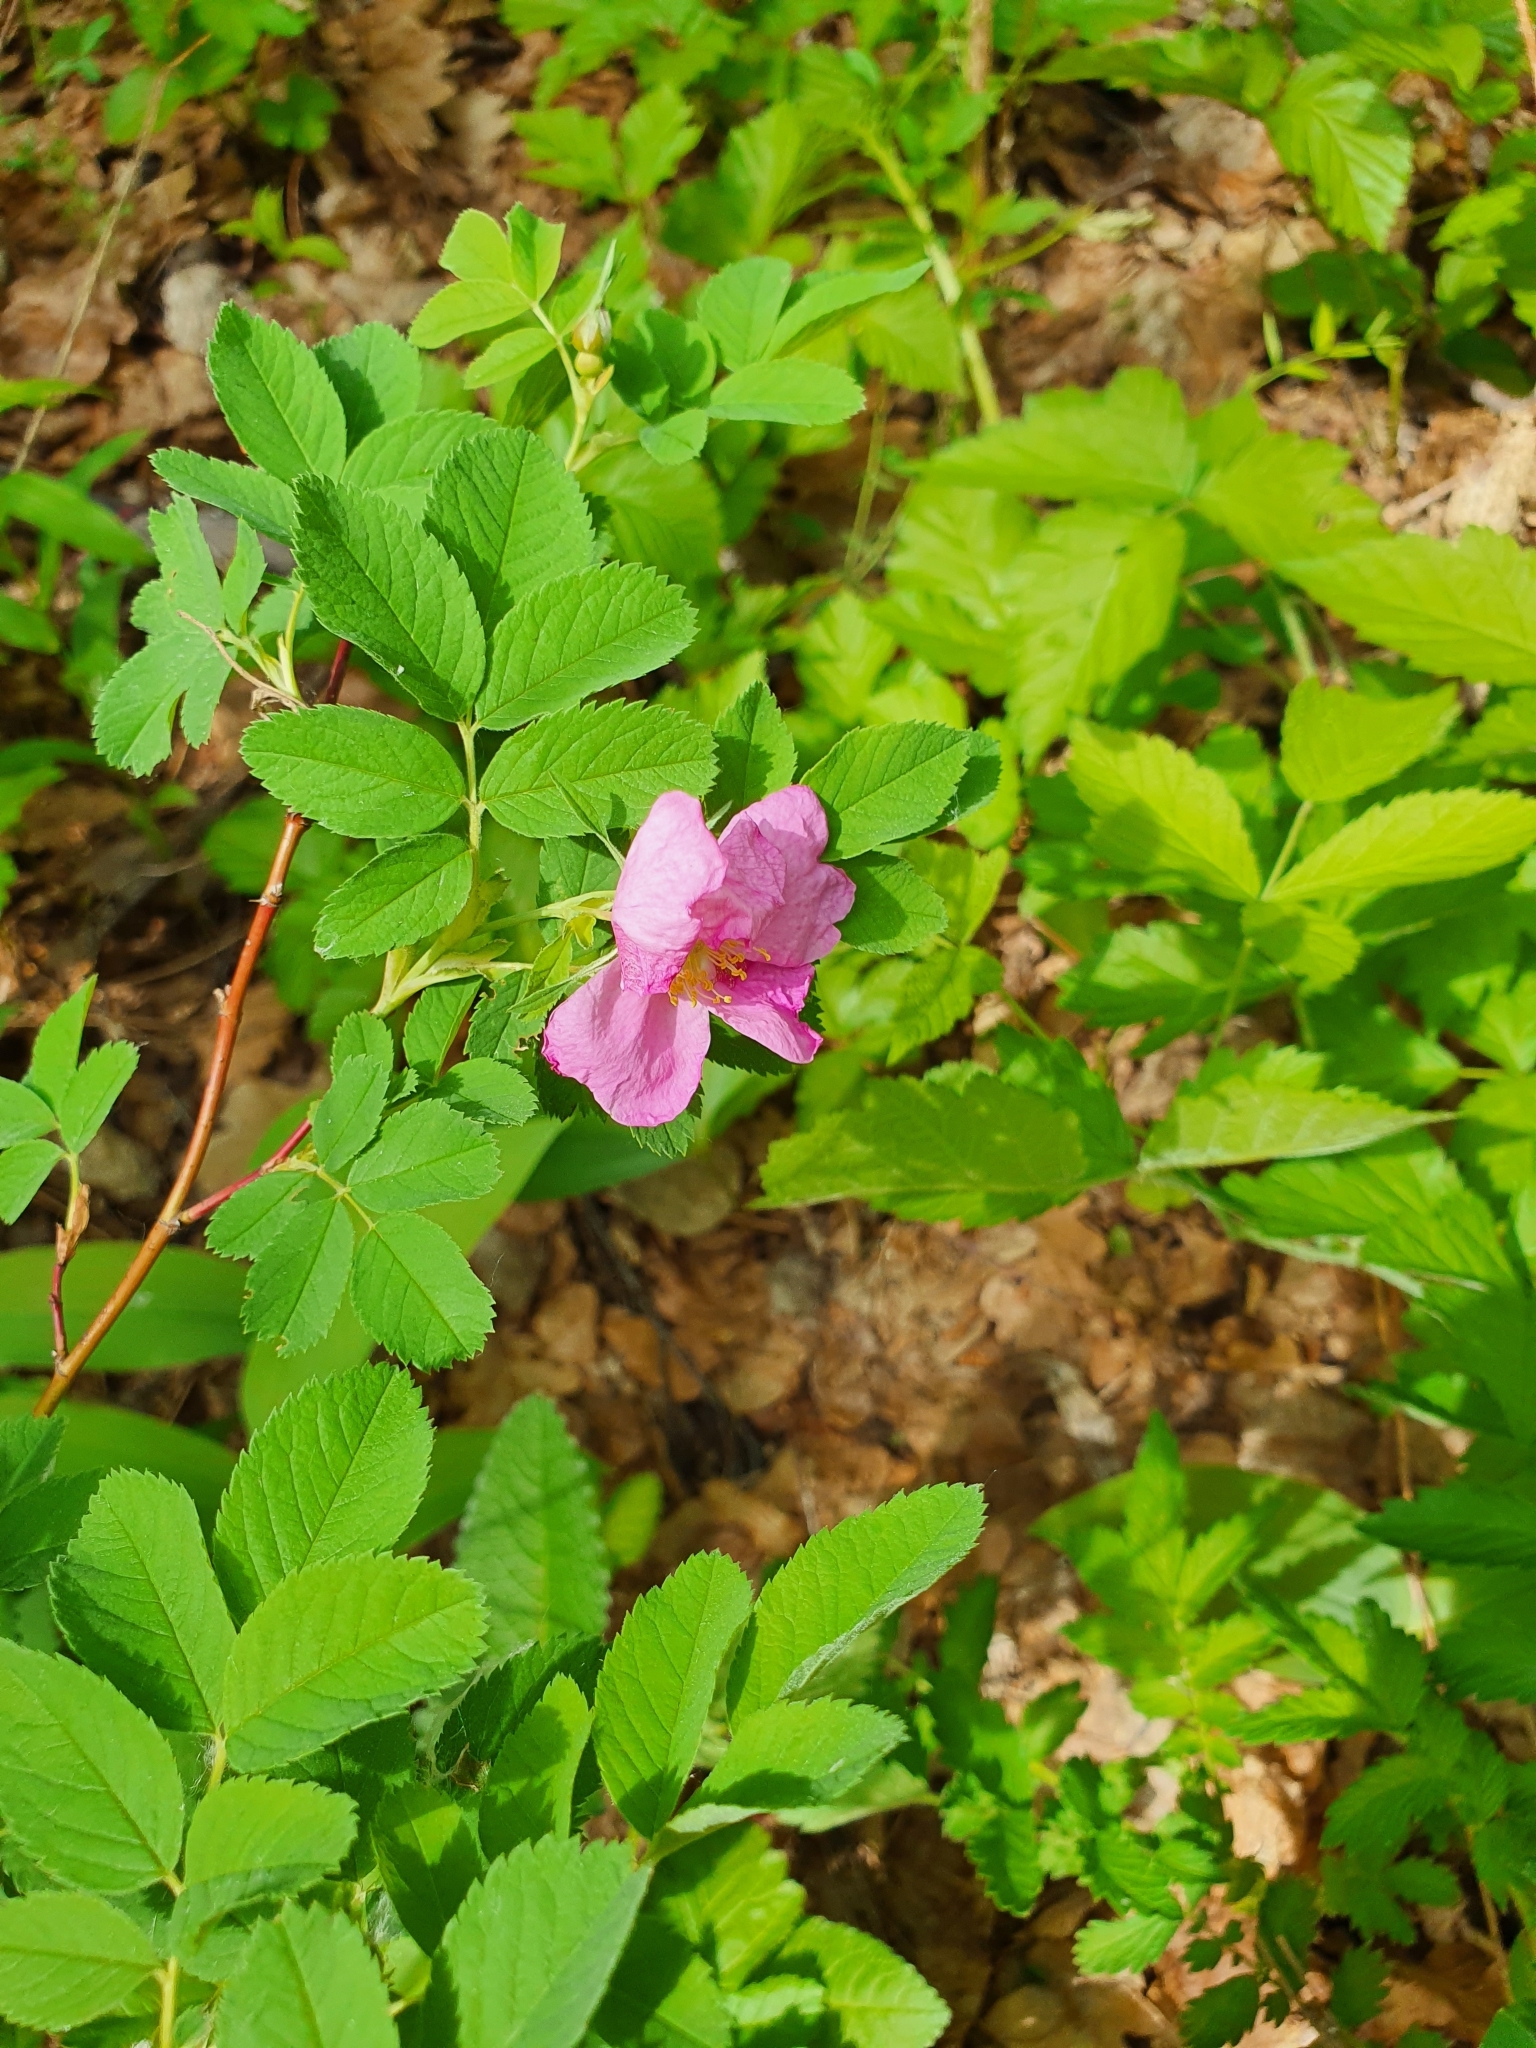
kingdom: Plantae
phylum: Tracheophyta
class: Magnoliopsida
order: Rosales
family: Rosaceae
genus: Rosa
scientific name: Rosa majalis
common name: Cinnamon rose
